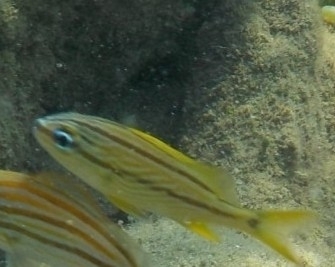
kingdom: Animalia
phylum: Chordata
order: Perciformes
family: Haemulidae
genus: Haemulon
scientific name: Haemulon flavolineatum
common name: French grunt
